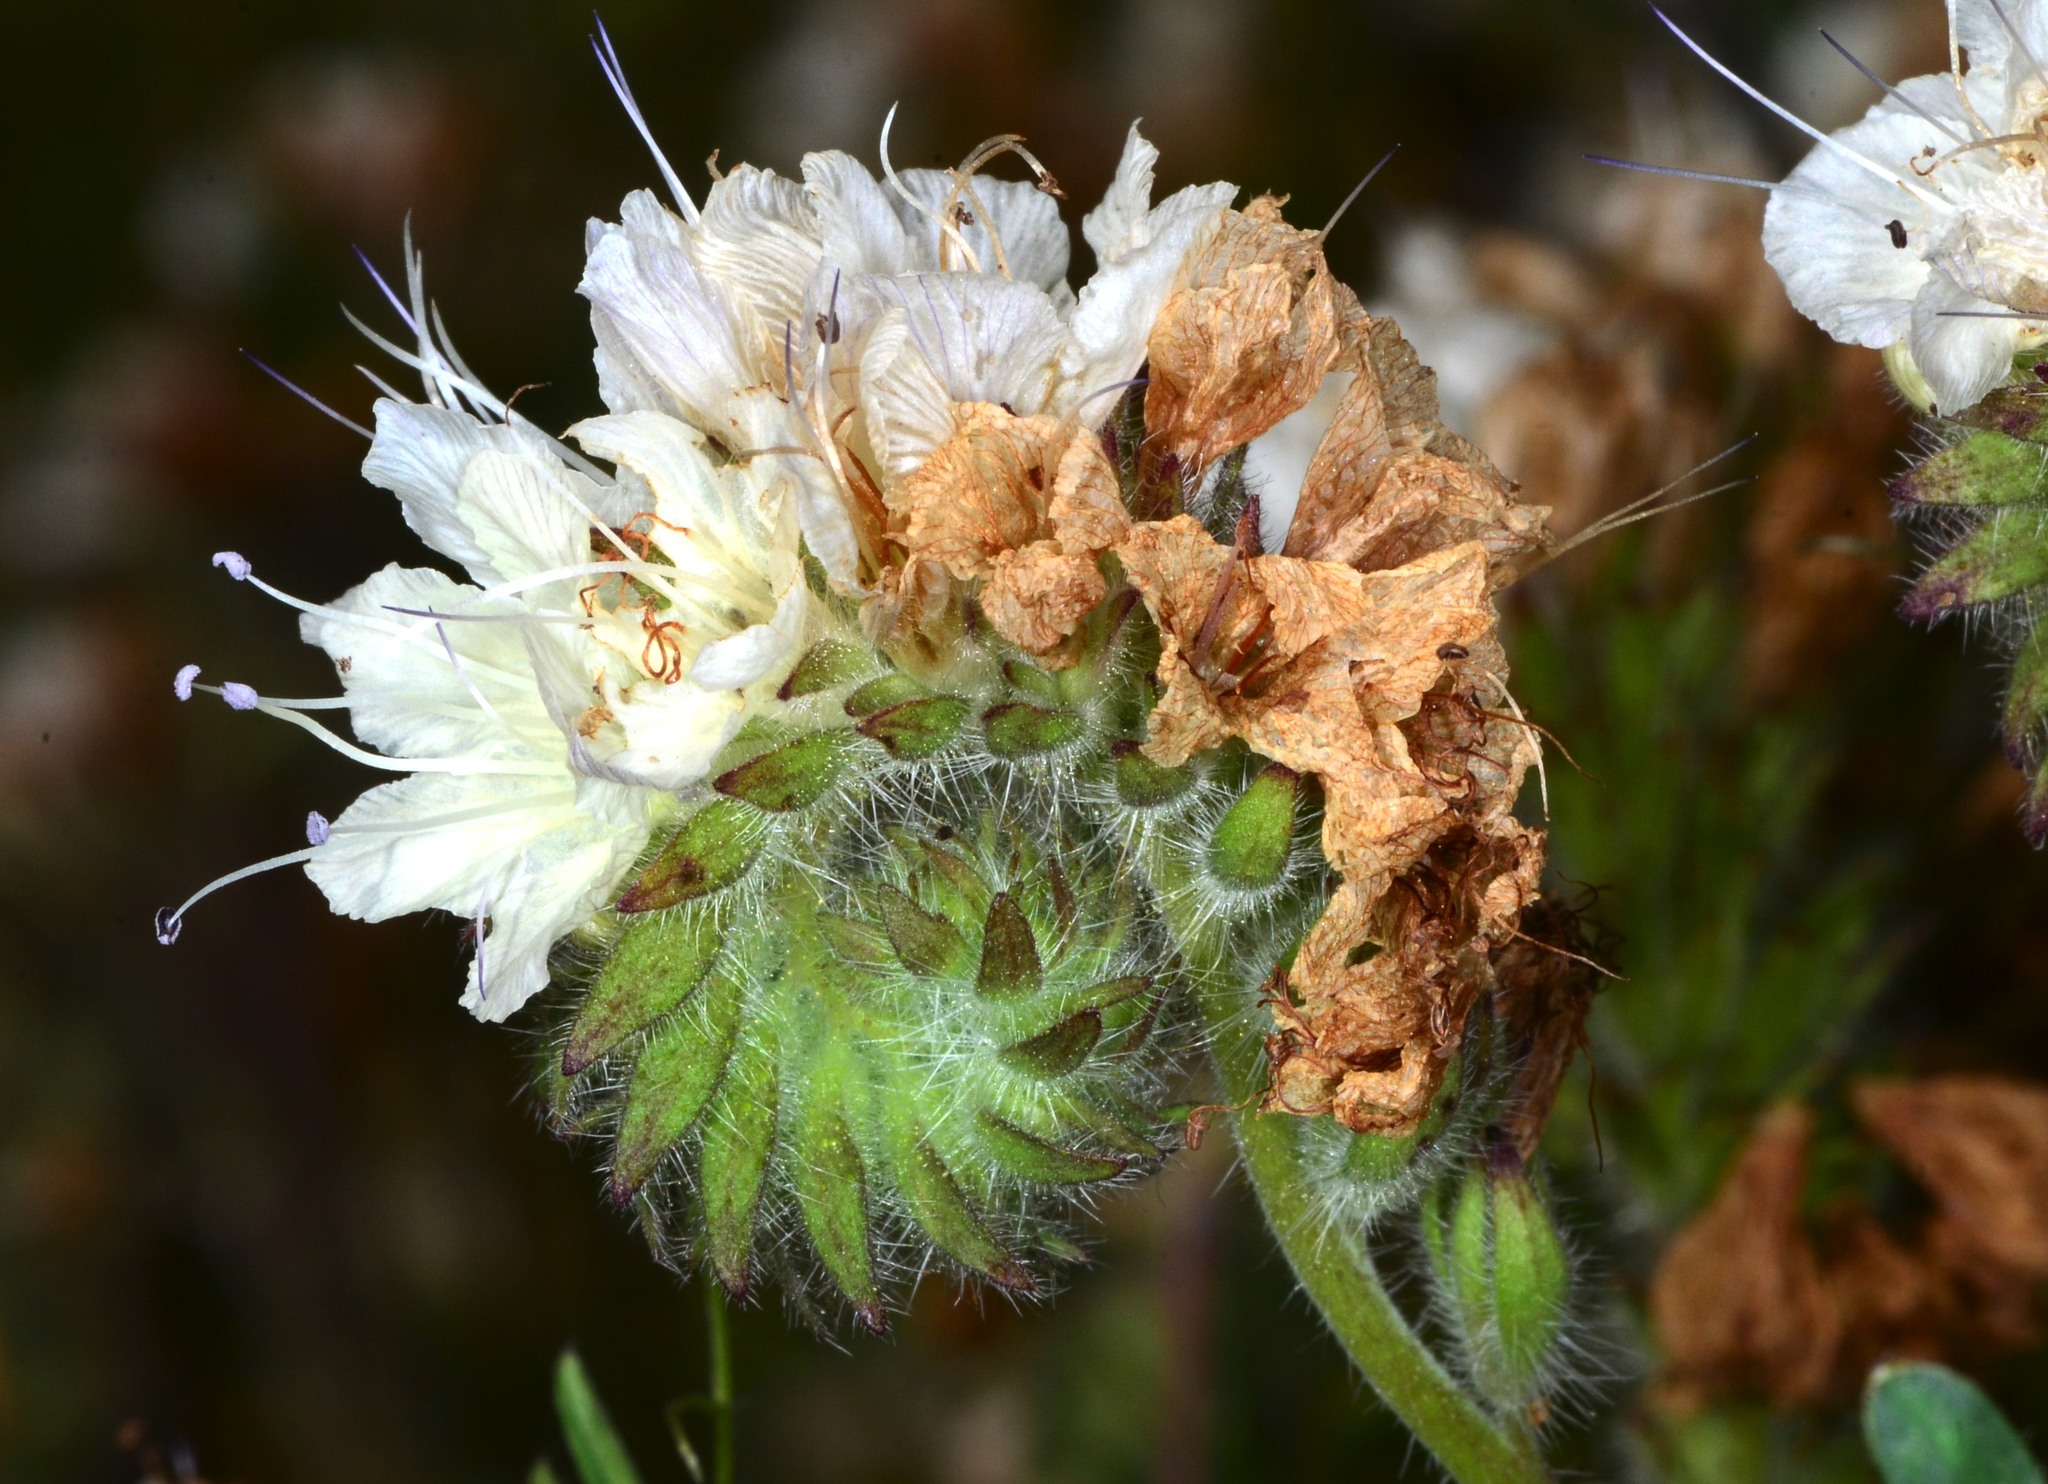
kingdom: Plantae
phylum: Tracheophyta
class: Magnoliopsida
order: Boraginales
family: Hydrophyllaceae
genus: Phacelia
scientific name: Phacelia distans
